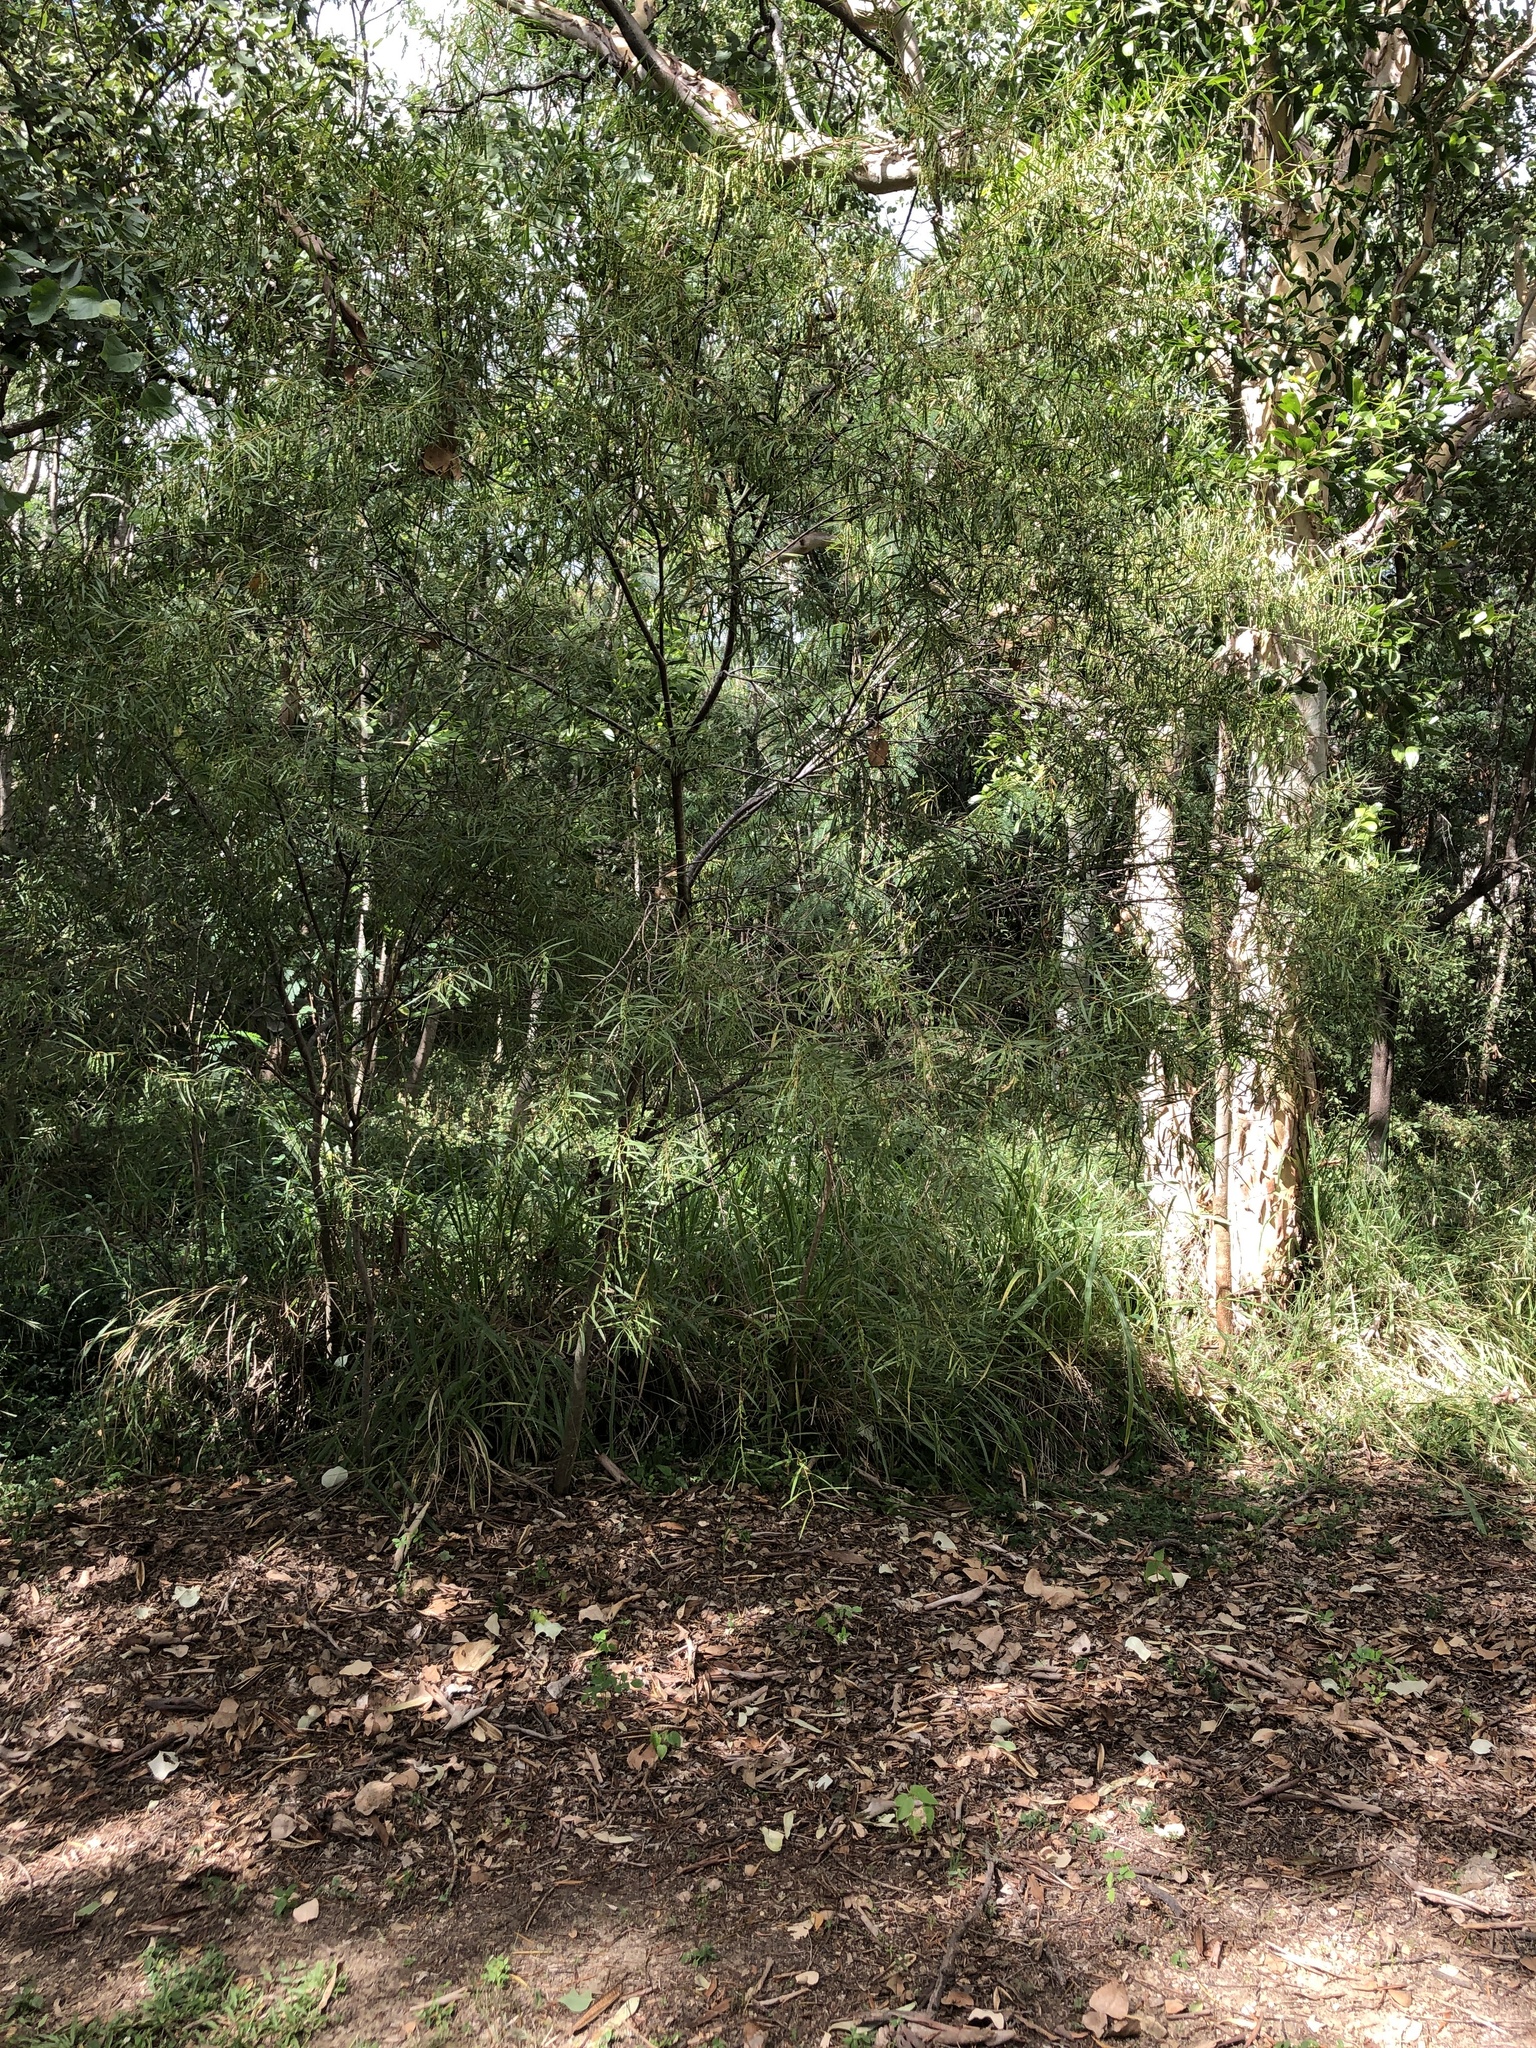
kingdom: Plantae
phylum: Tracheophyta
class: Magnoliopsida
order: Fabales
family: Fabaceae
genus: Acacia
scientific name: Acacia simsii
